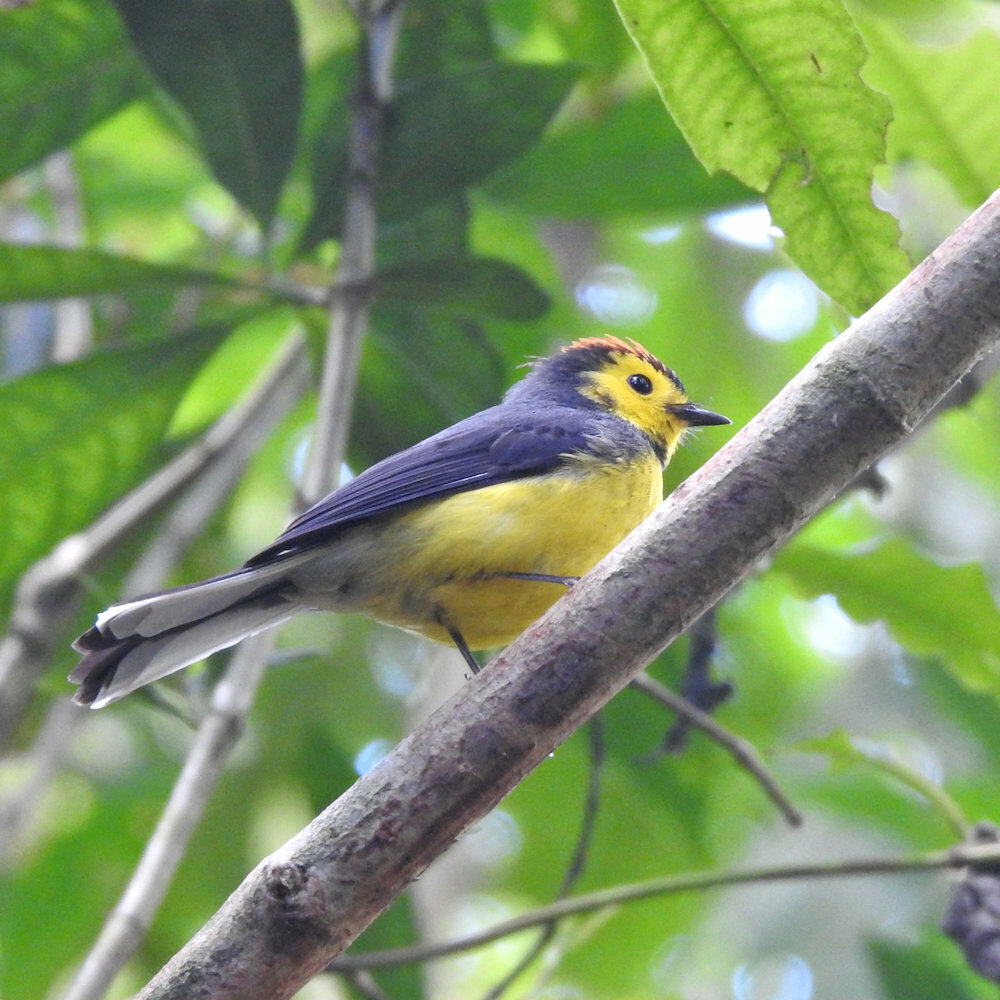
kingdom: Animalia
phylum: Chordata
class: Aves
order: Passeriformes
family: Parulidae
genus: Myioborus
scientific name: Myioborus torquatus
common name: Collared whitestart
